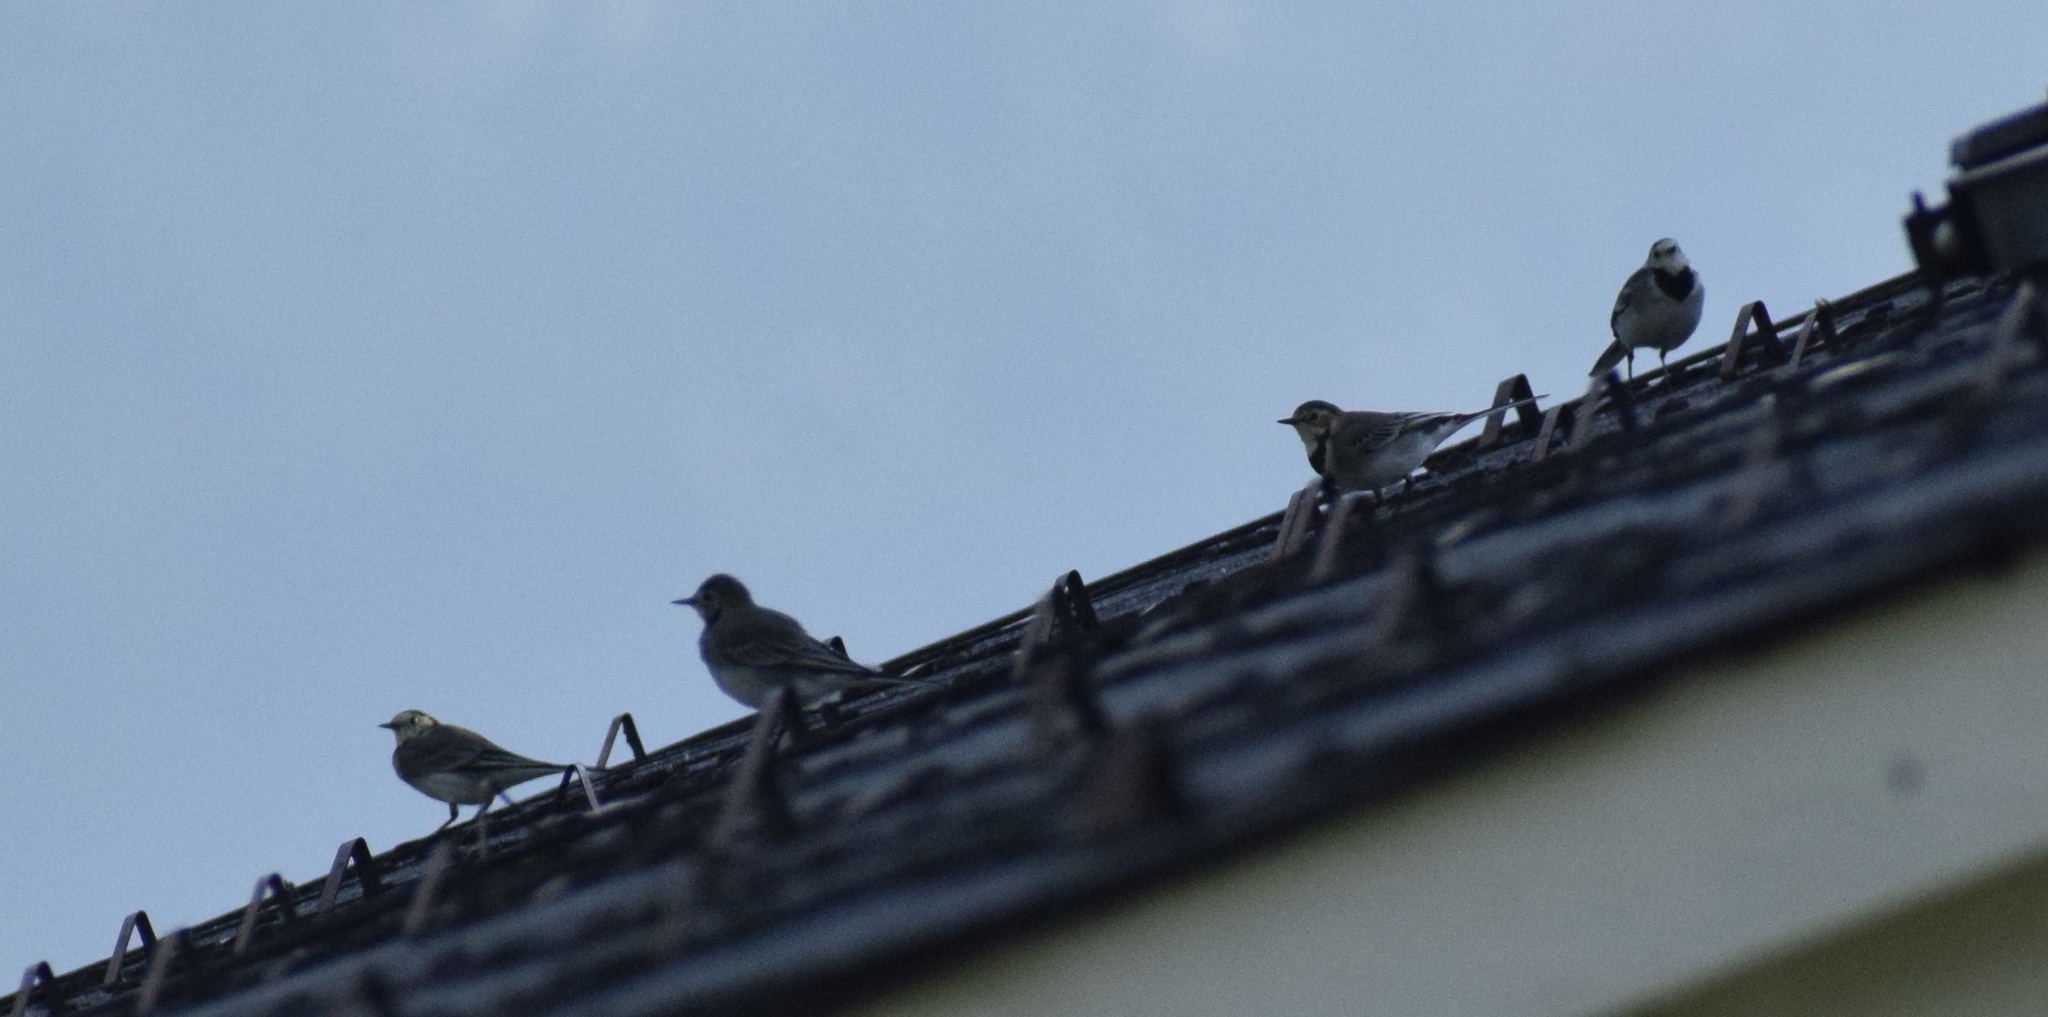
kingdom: Animalia
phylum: Chordata
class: Aves
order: Passeriformes
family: Motacillidae
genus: Motacilla
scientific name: Motacilla alba
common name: White wagtail
